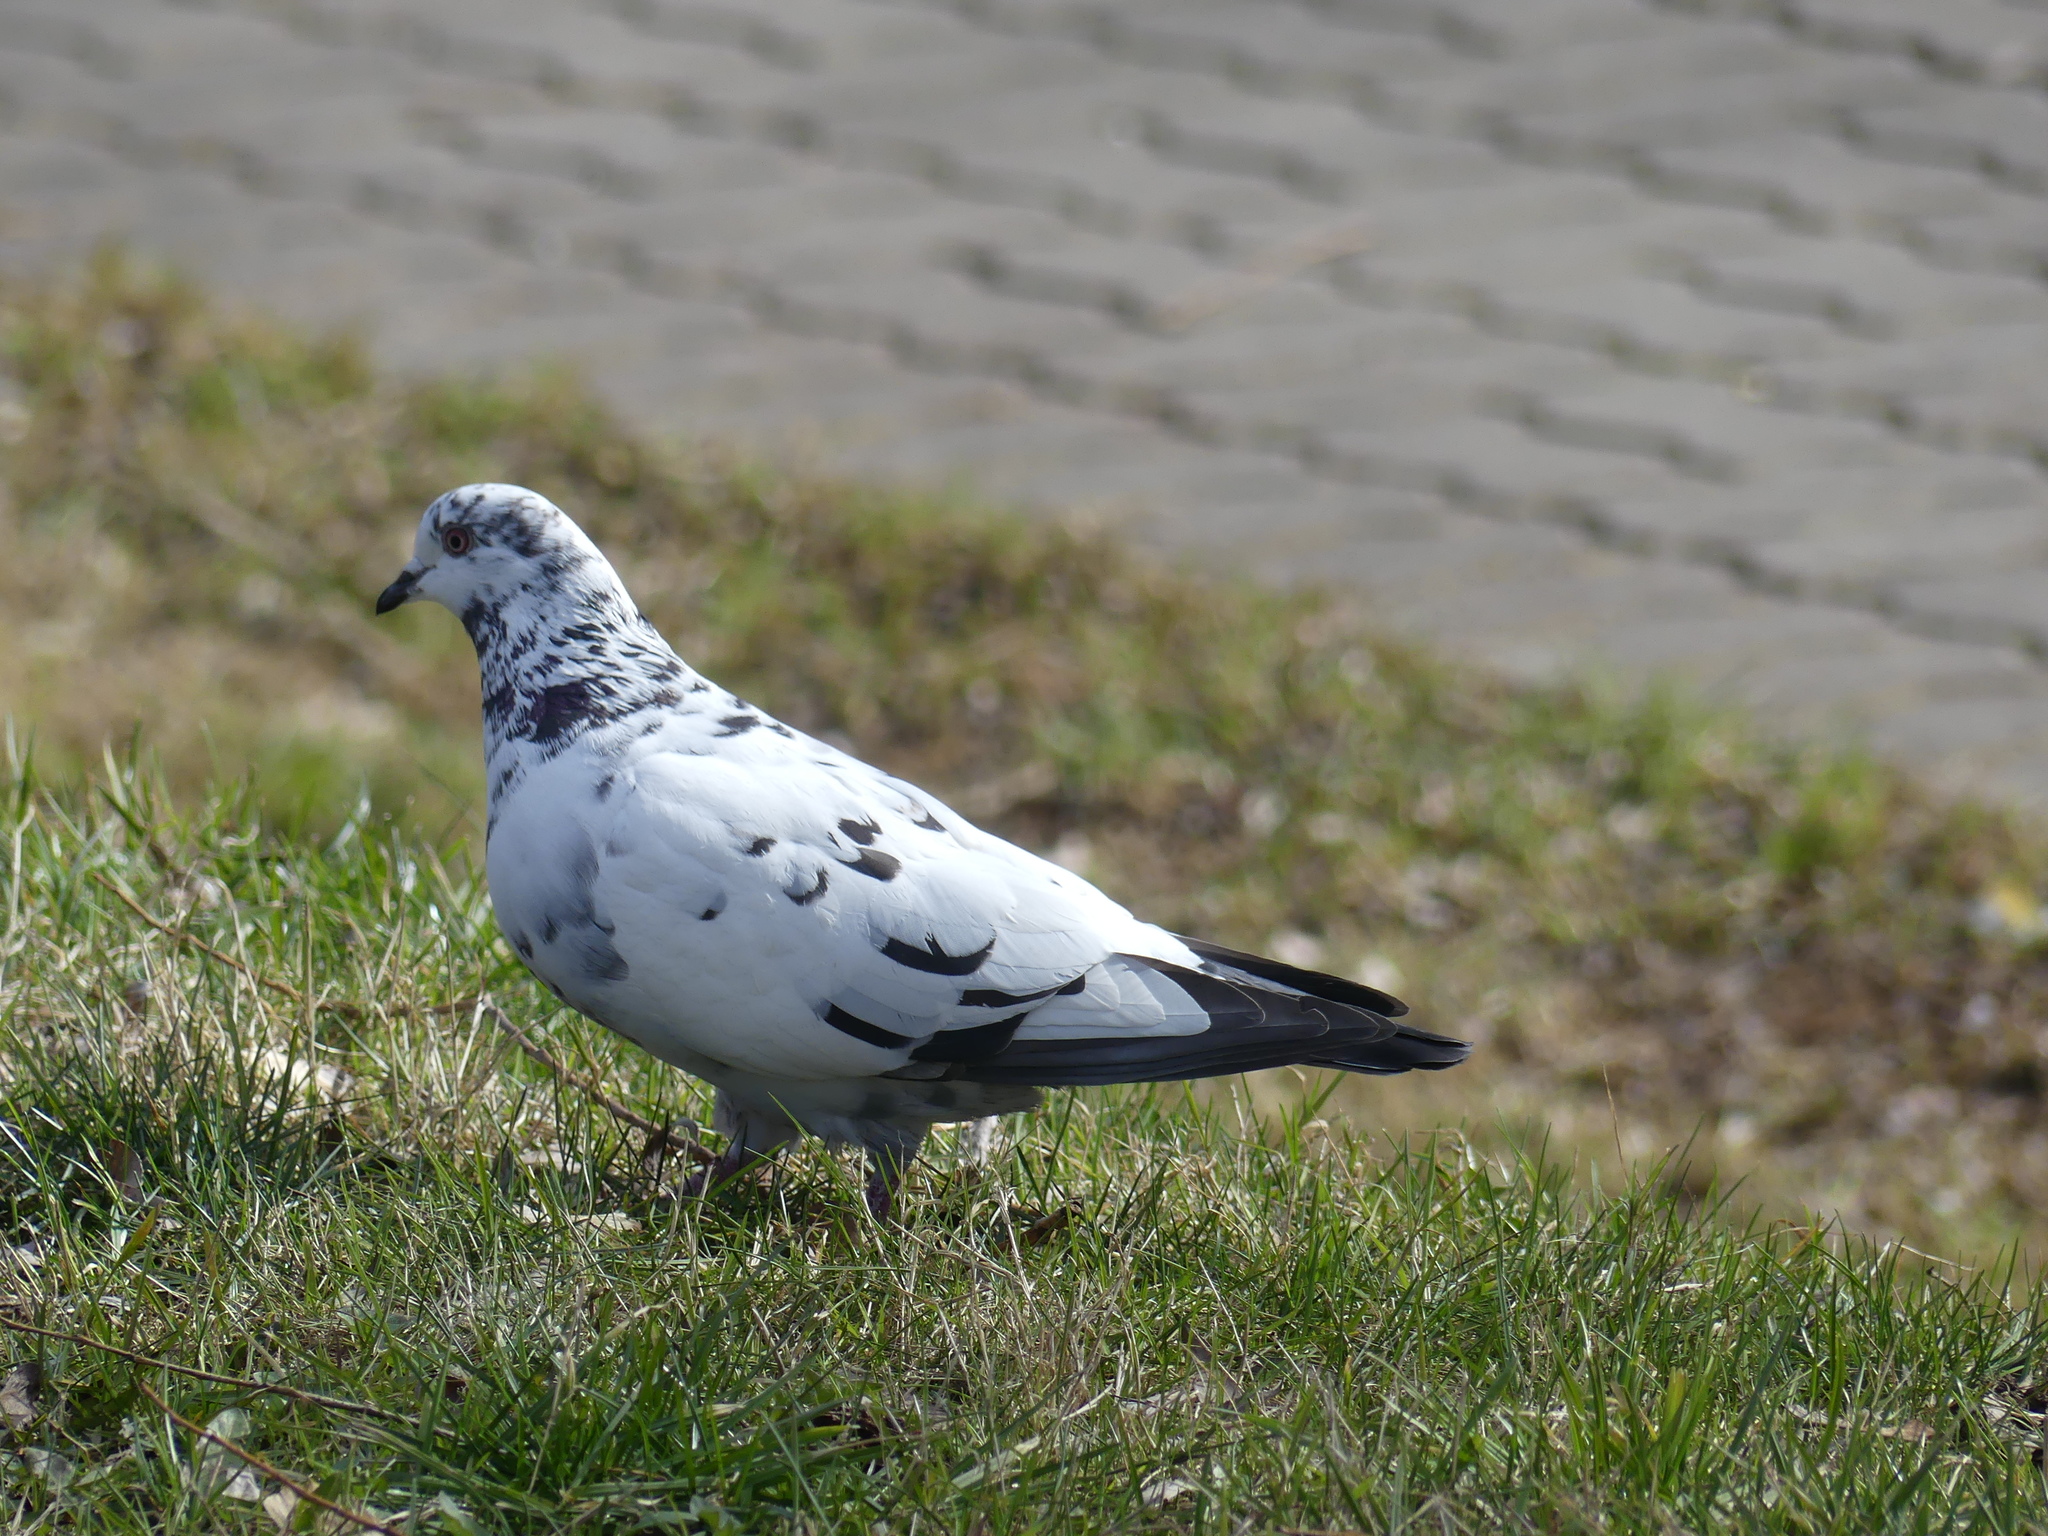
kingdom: Animalia
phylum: Chordata
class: Aves
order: Columbiformes
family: Columbidae
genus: Columba
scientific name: Columba livia
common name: Rock pigeon
